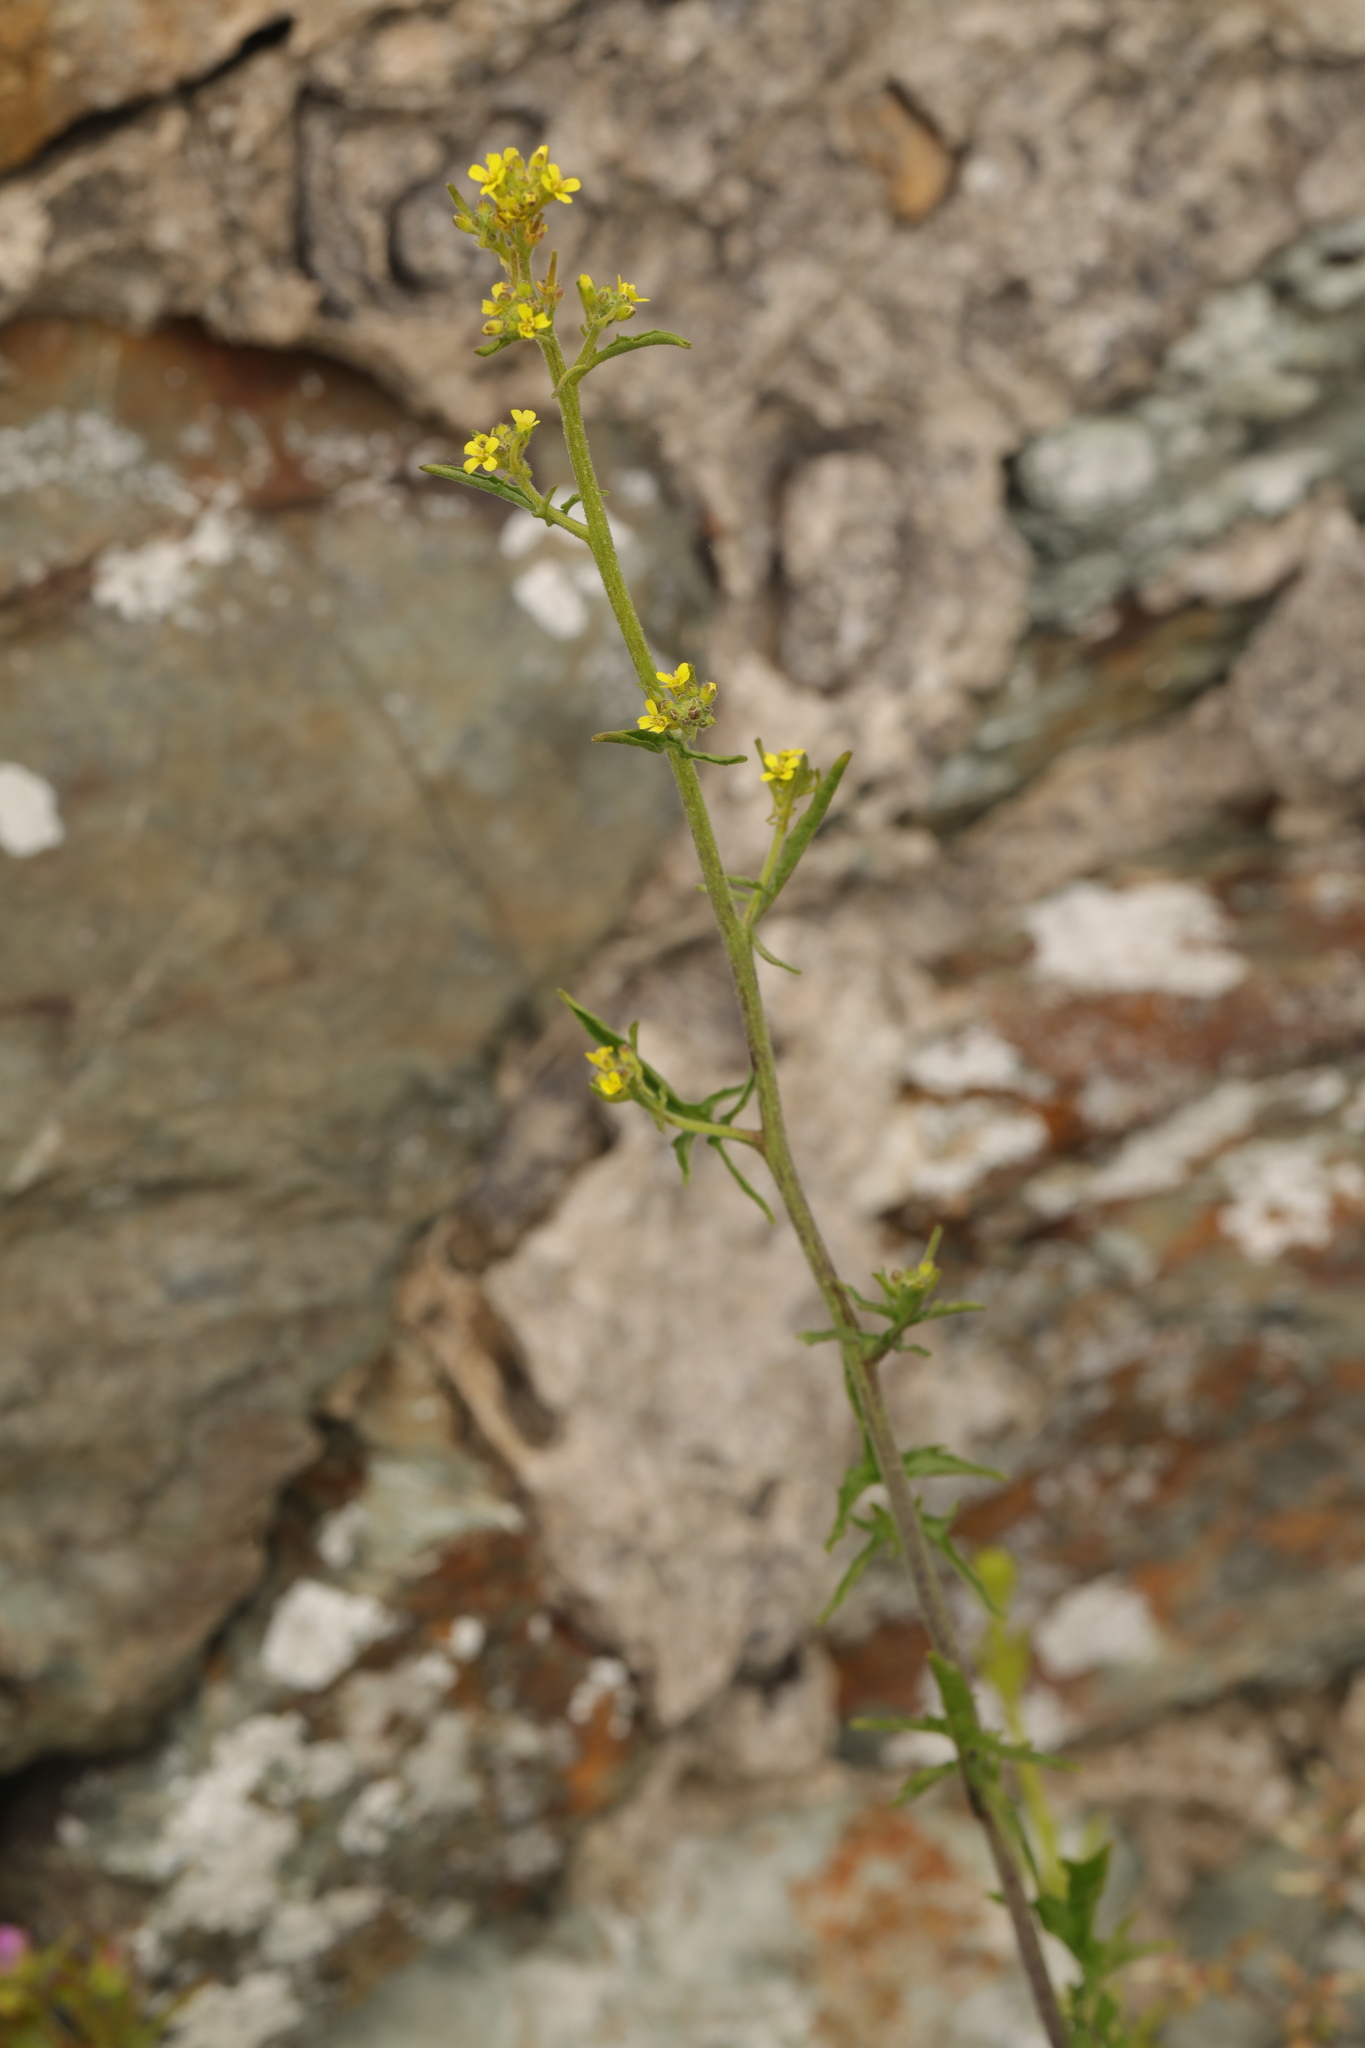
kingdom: Plantae
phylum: Tracheophyta
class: Magnoliopsida
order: Brassicales
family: Brassicaceae
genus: Sisymbrium
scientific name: Sisymbrium officinale
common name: Hedge mustard
